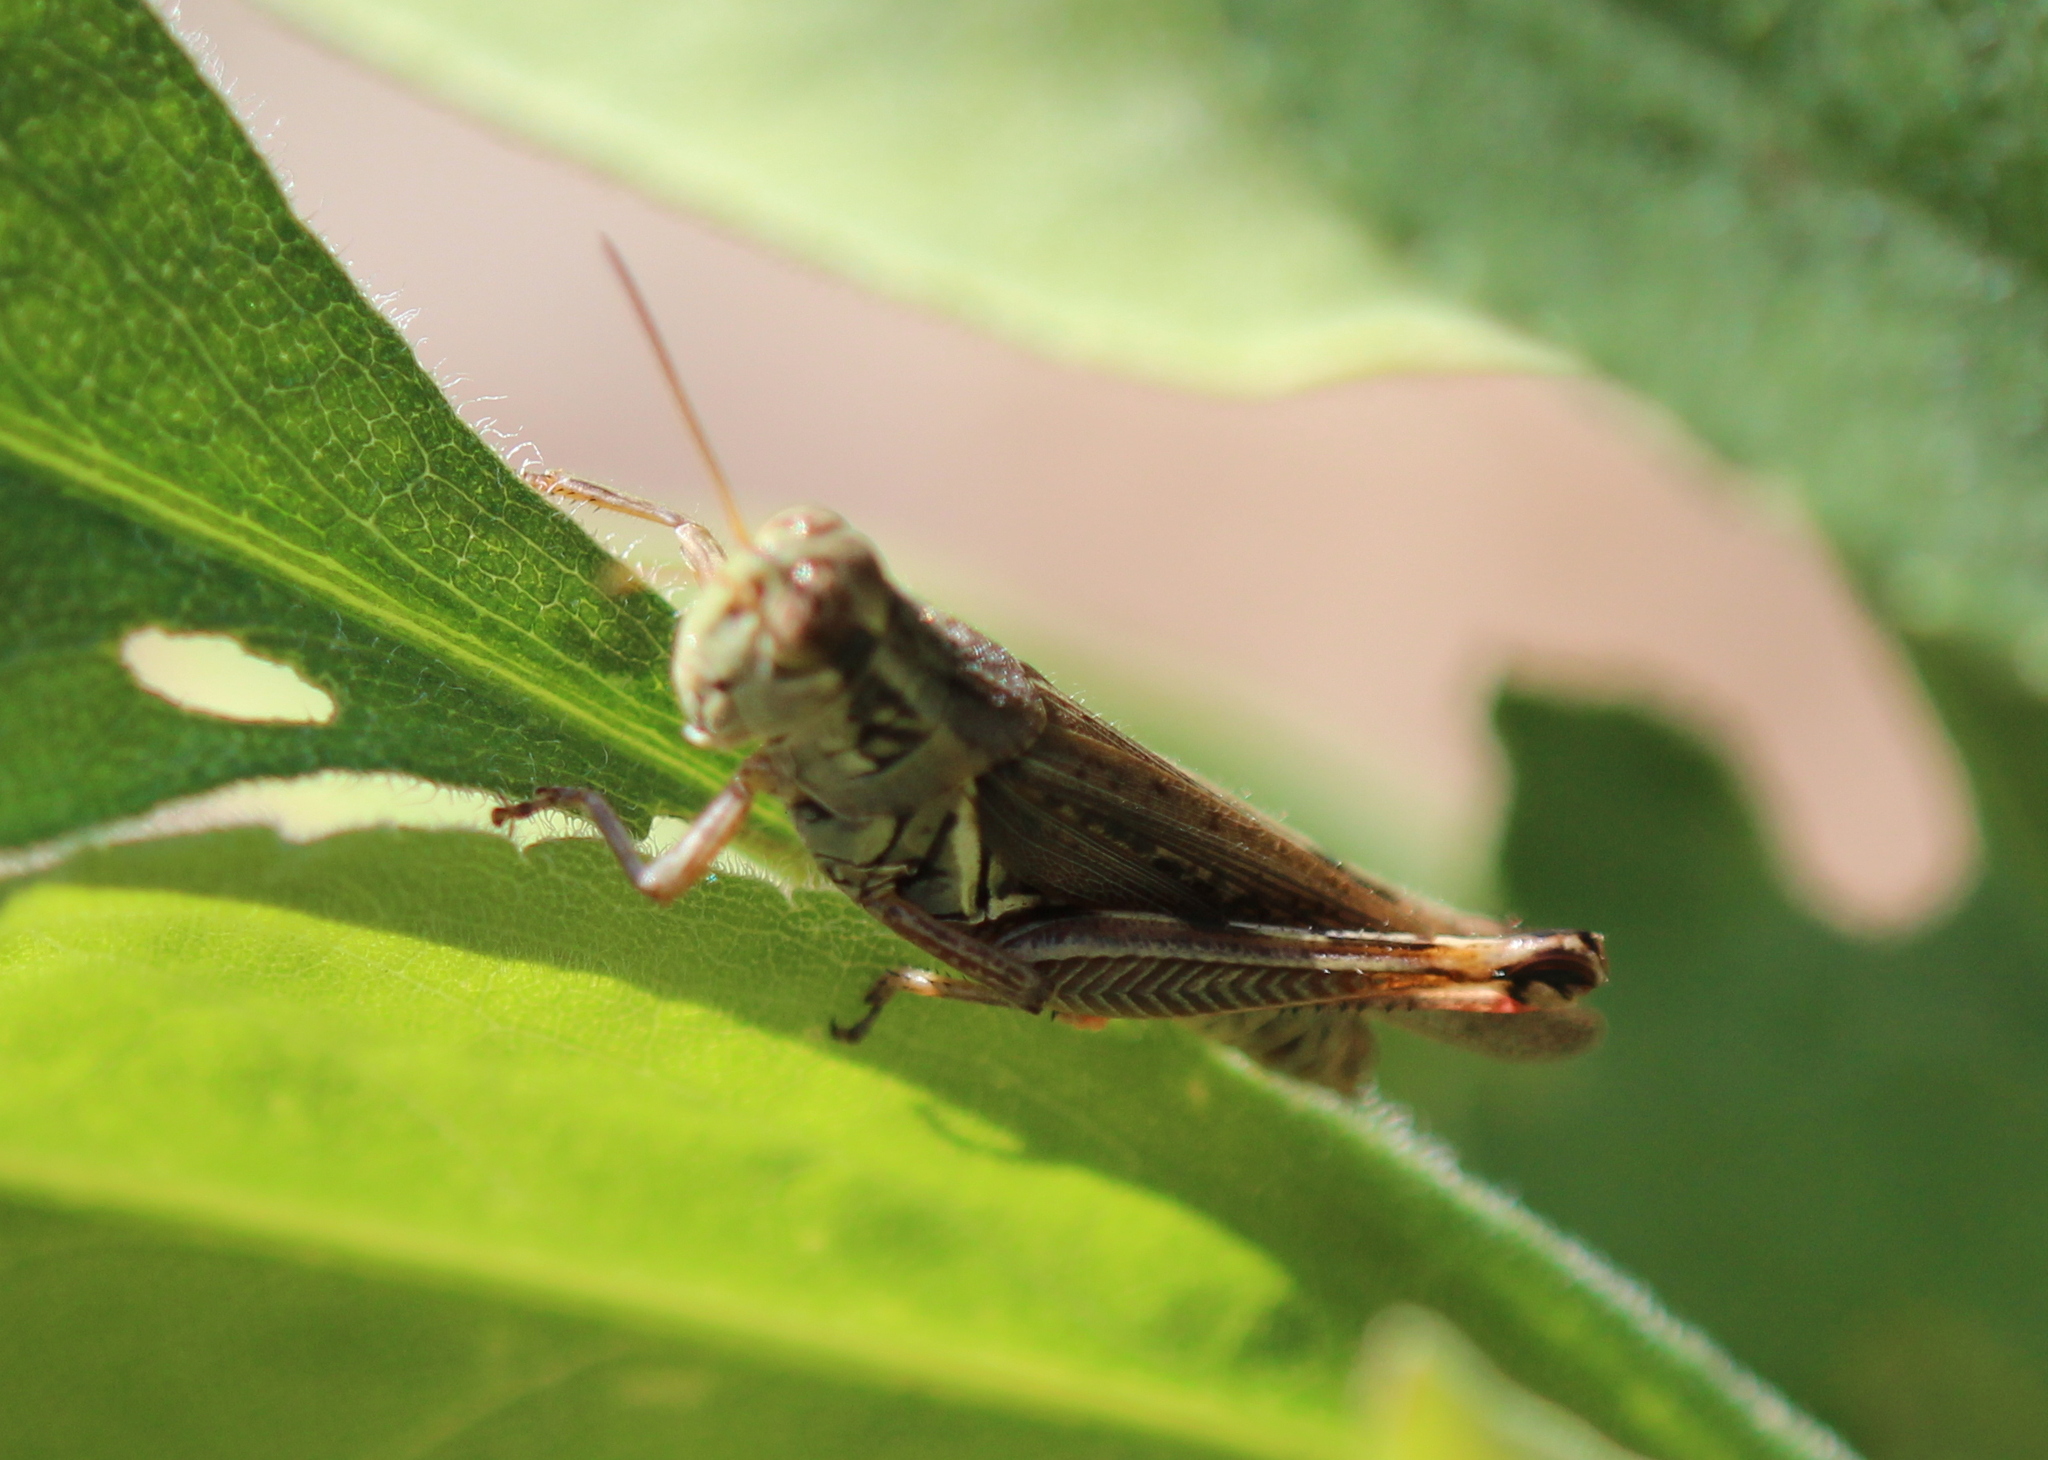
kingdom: Animalia
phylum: Arthropoda
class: Insecta
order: Orthoptera
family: Acrididae
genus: Melanoplus
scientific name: Melanoplus femurrubrum
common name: Red-legged grasshopper
